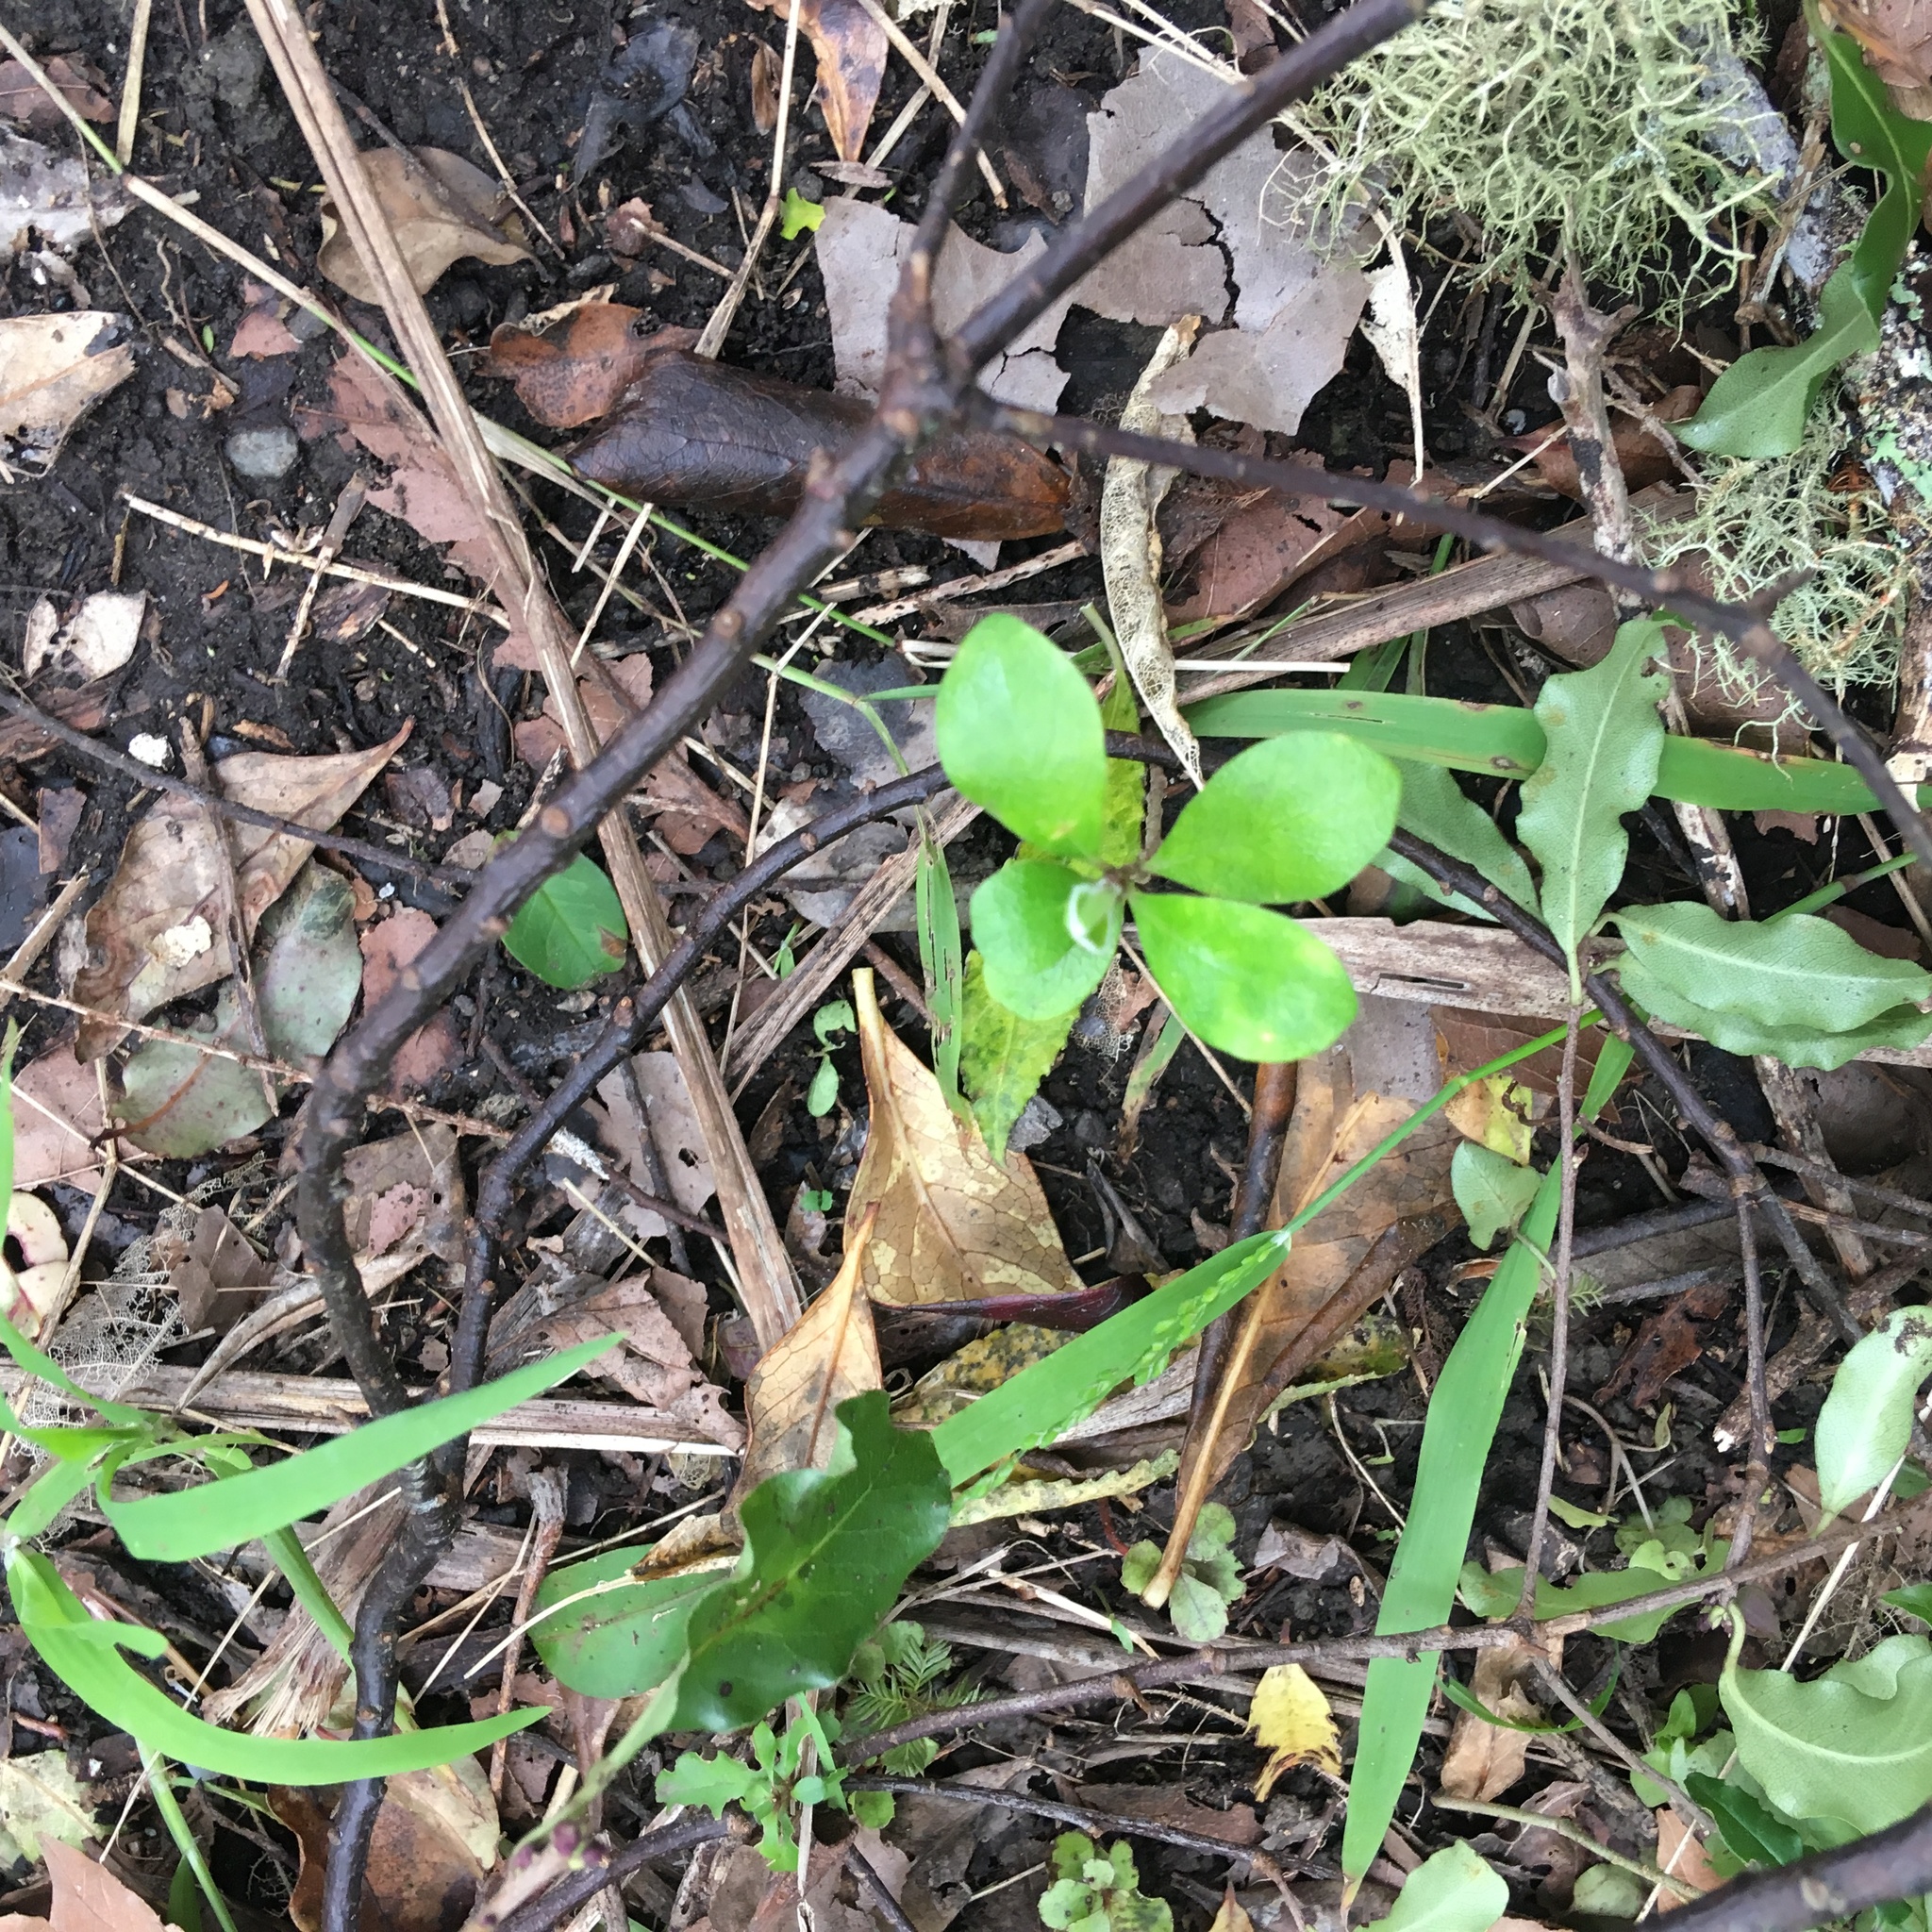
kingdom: Plantae
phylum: Tracheophyta
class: Magnoliopsida
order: Apiales
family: Pittosporaceae
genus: Pittosporum
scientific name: Pittosporum crassifolium
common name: Karo
